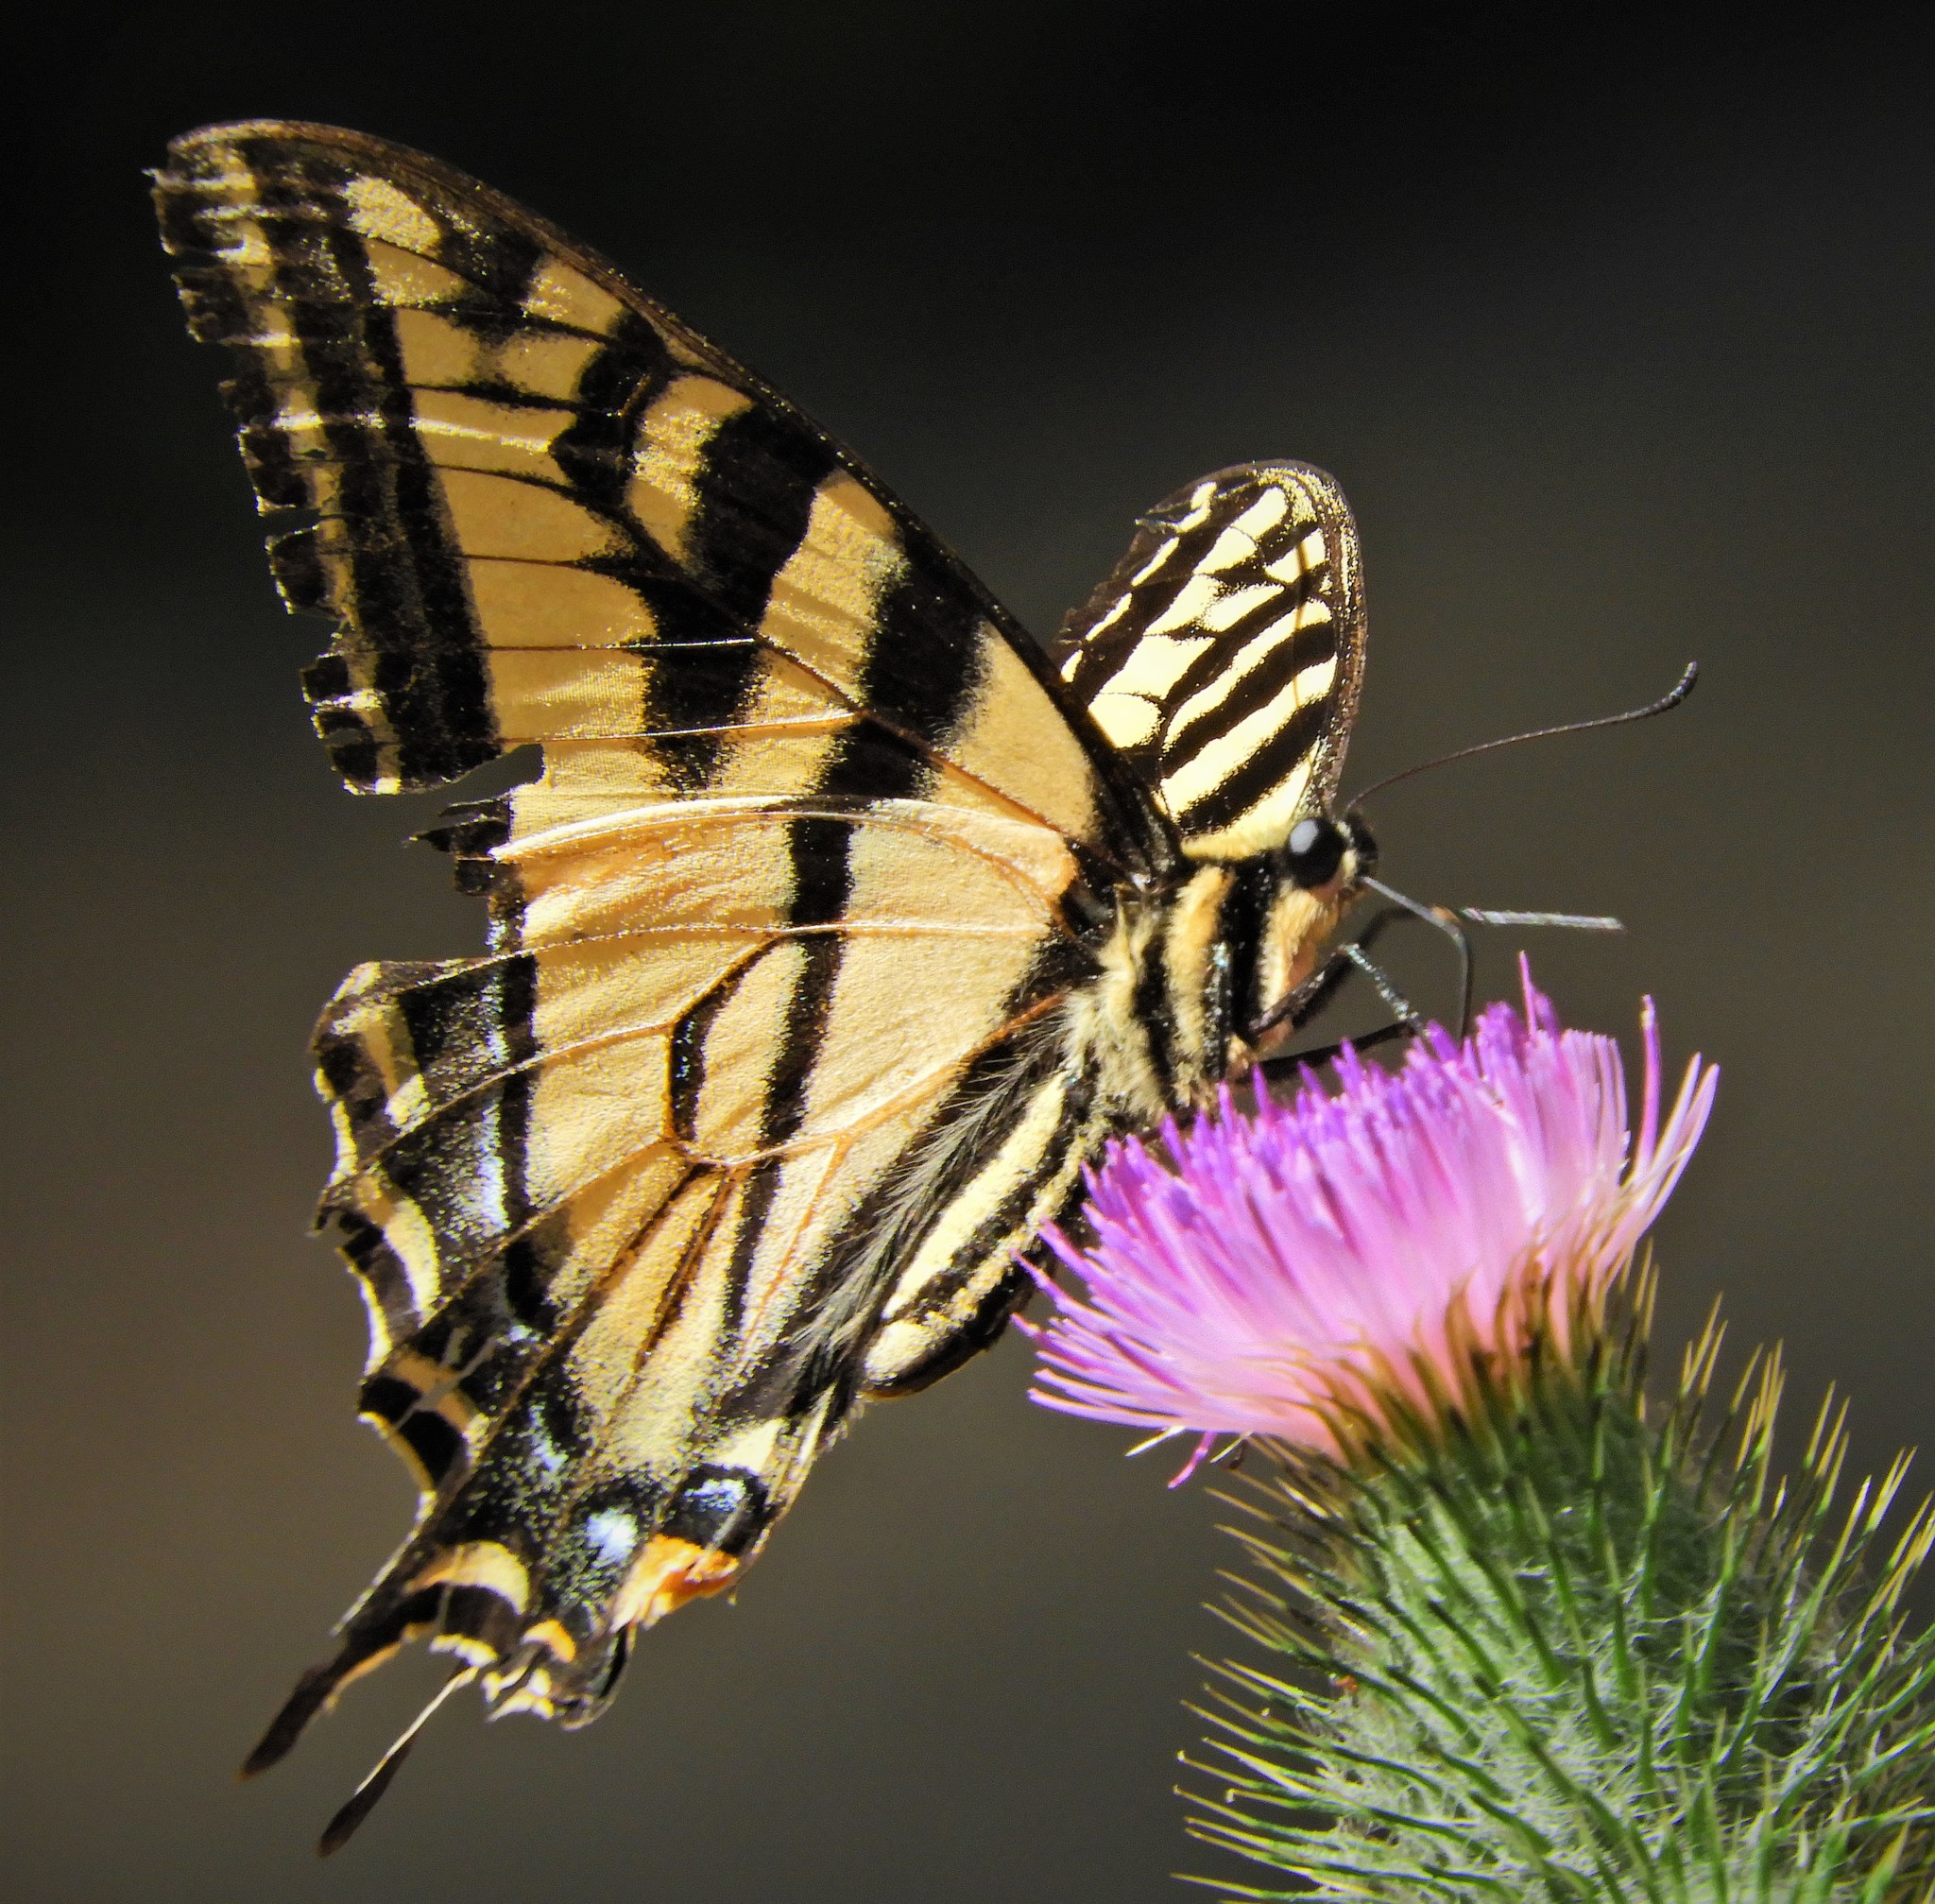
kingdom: Animalia
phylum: Arthropoda
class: Insecta
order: Lepidoptera
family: Papilionidae
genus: Papilio
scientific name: Papilio rutulus
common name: Western tiger swallowtail
